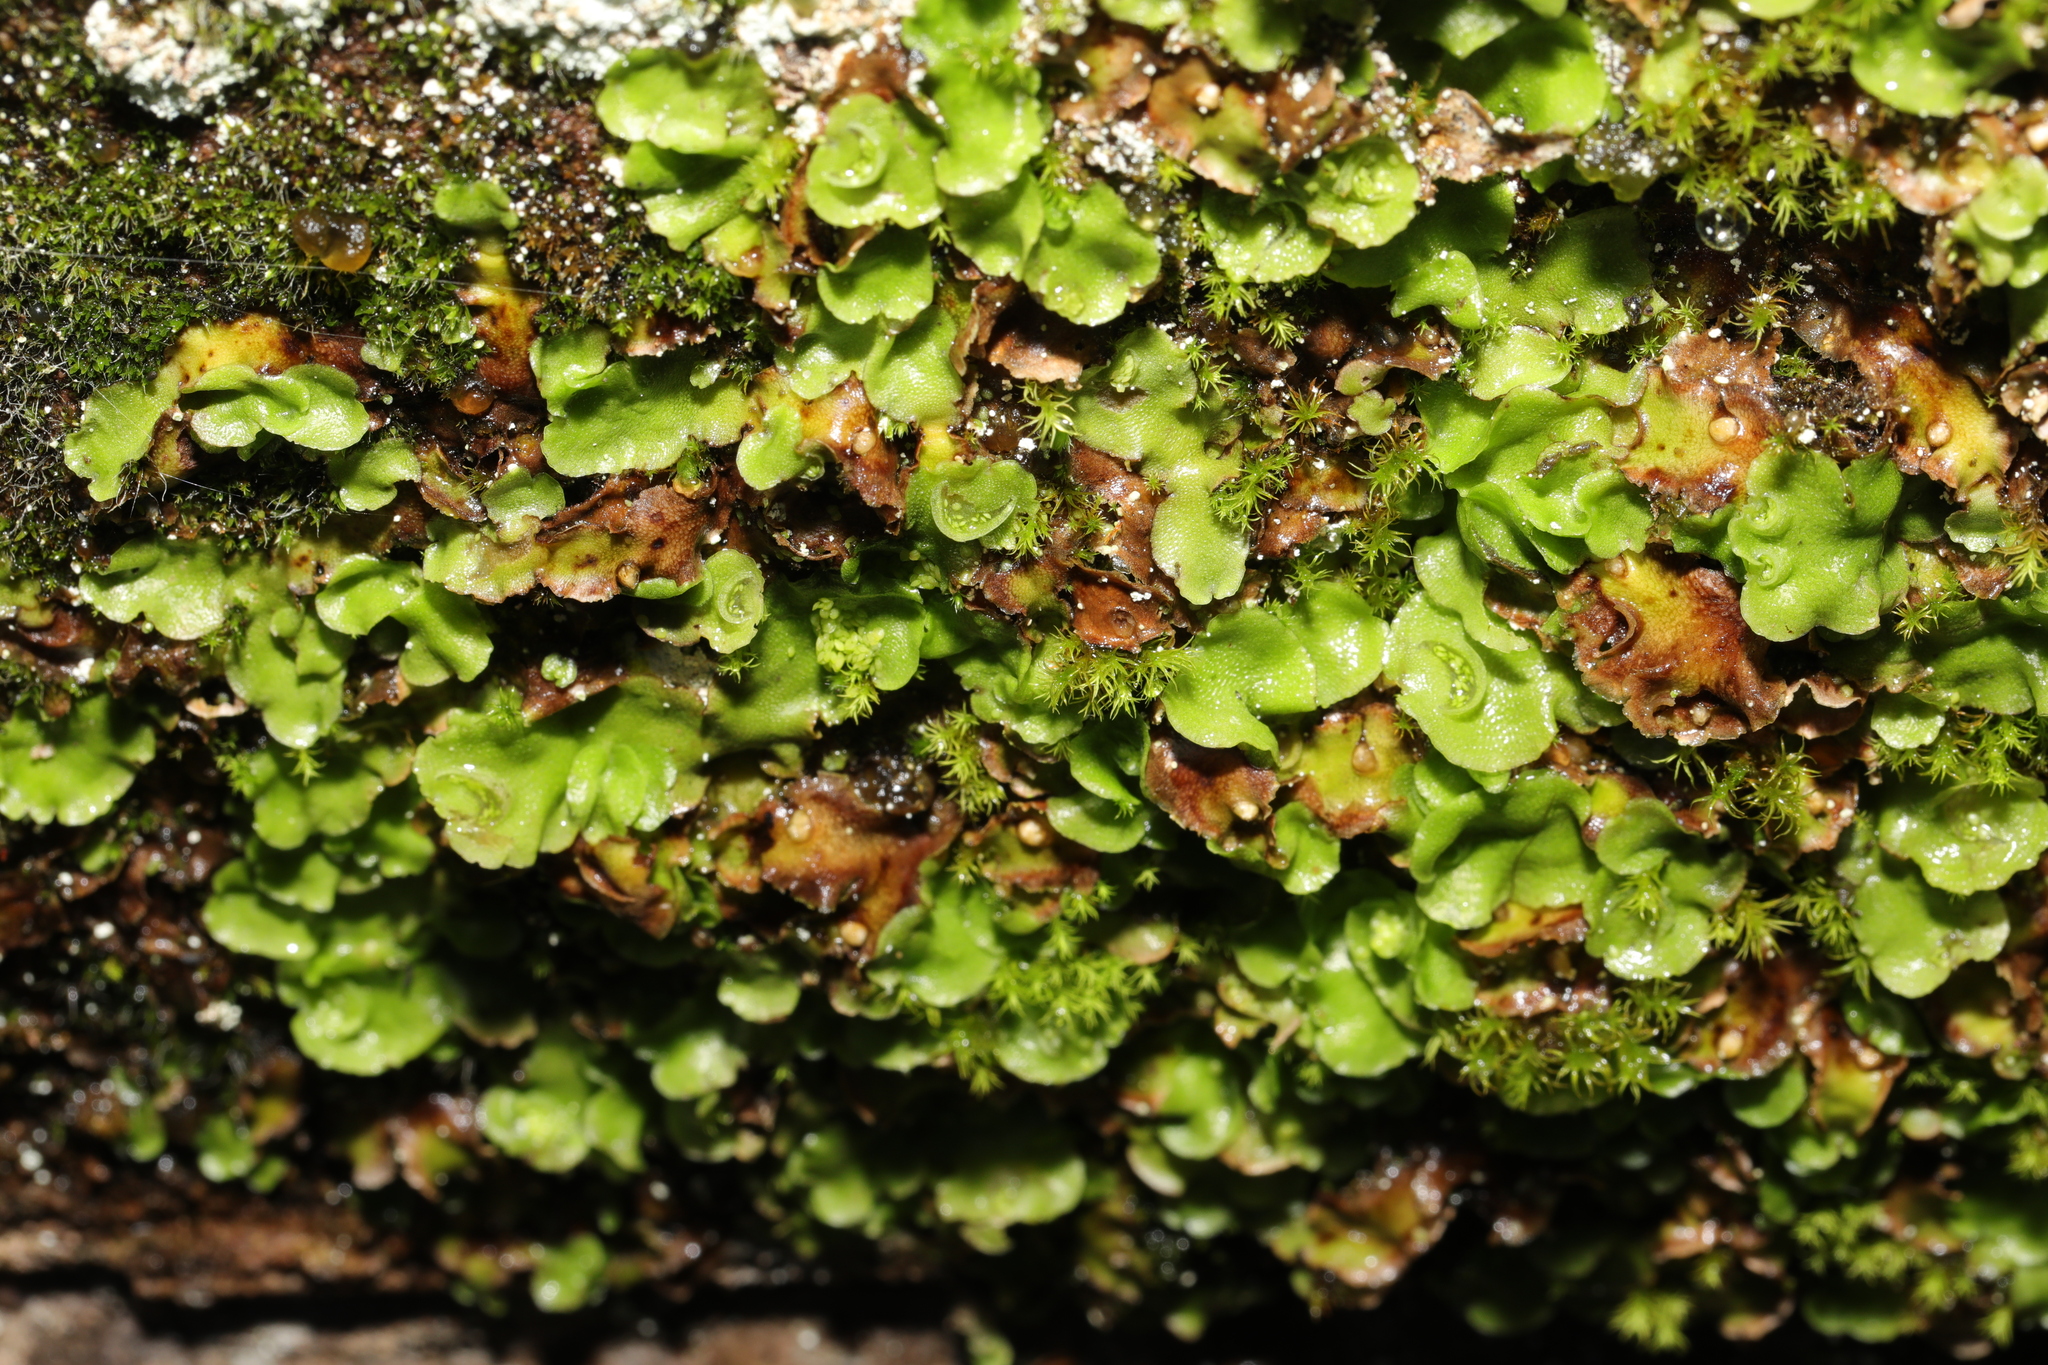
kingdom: Plantae
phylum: Marchantiophyta
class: Marchantiopsida
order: Lunulariales
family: Lunulariaceae
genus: Lunularia
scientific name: Lunularia cruciata
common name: Crescent-cup liverwort
